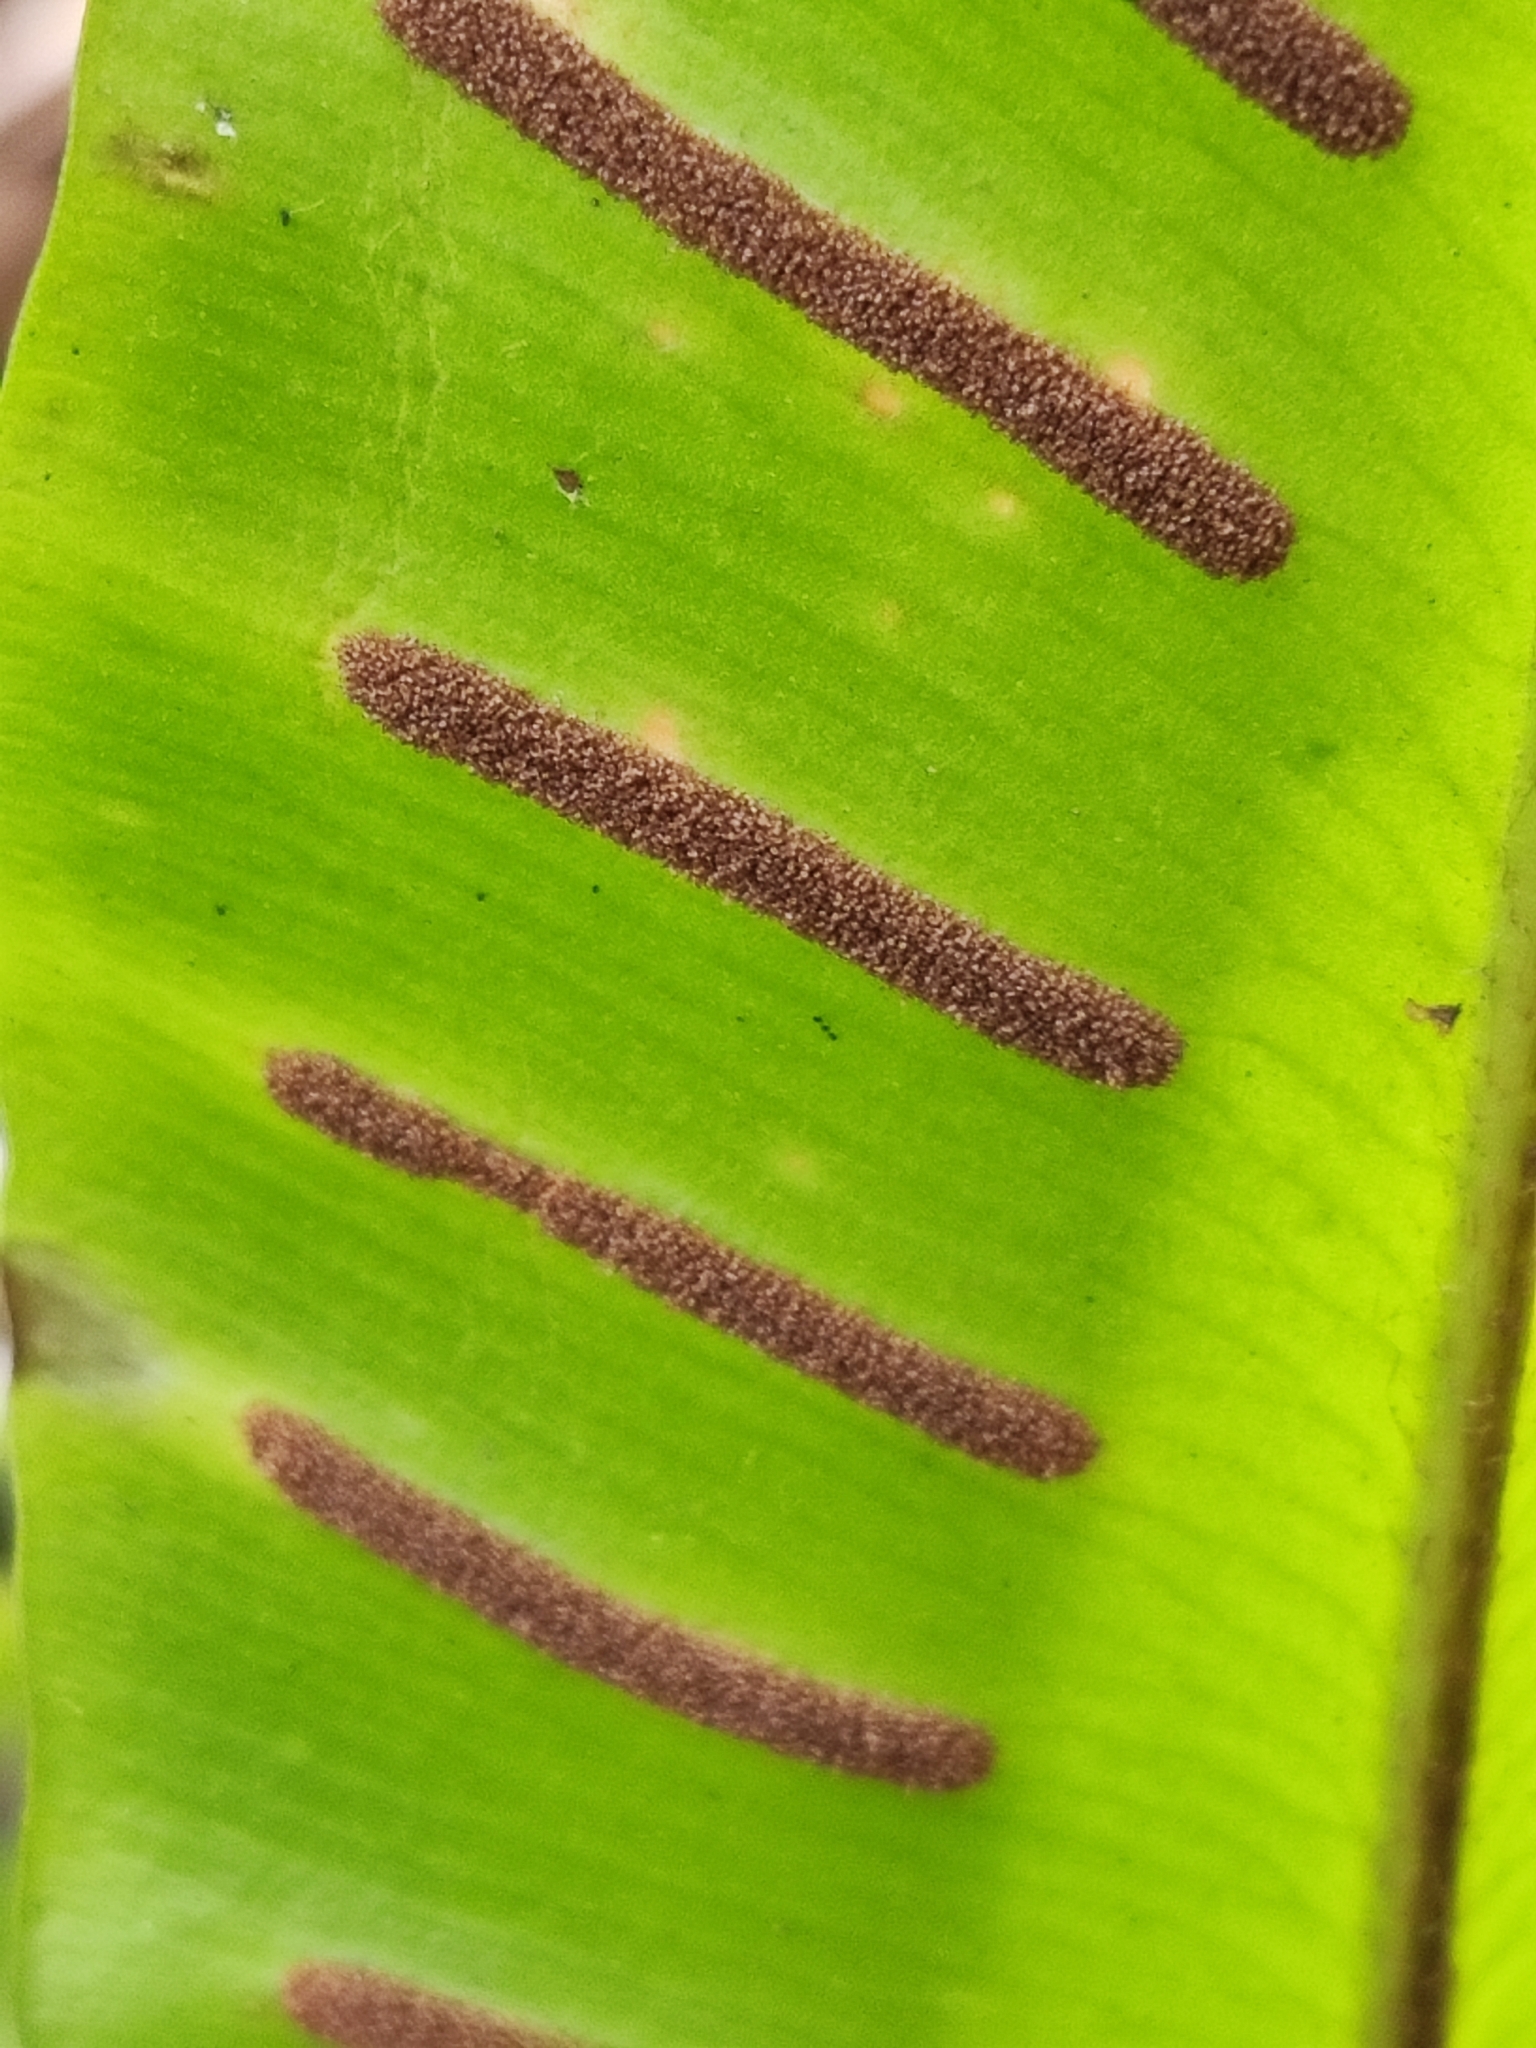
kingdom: Plantae
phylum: Tracheophyta
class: Polypodiopsida
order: Polypodiales
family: Aspleniaceae
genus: Asplenium
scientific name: Asplenium scolopendrium
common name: Hart's-tongue fern
